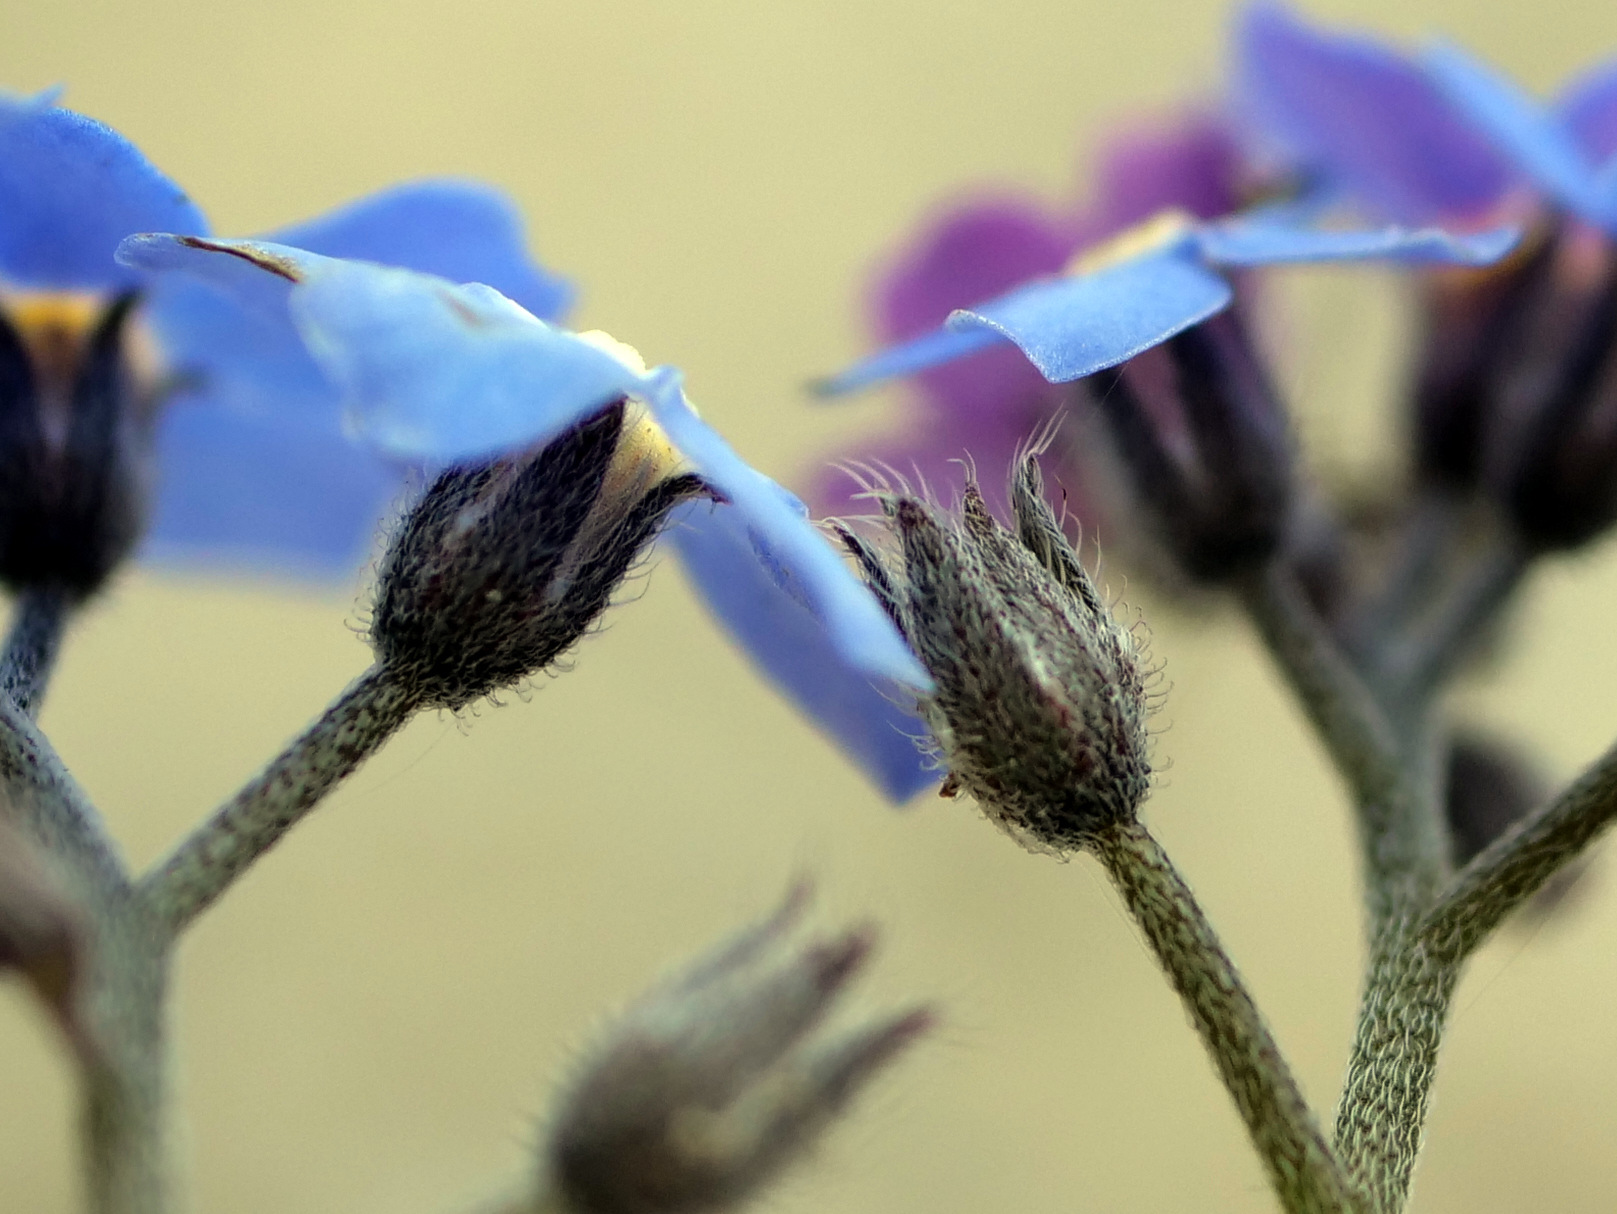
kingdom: Plantae
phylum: Tracheophyta
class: Magnoliopsida
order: Boraginales
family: Boraginaceae
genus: Myosotis
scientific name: Myosotis sylvatica
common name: Wood forget-me-not
